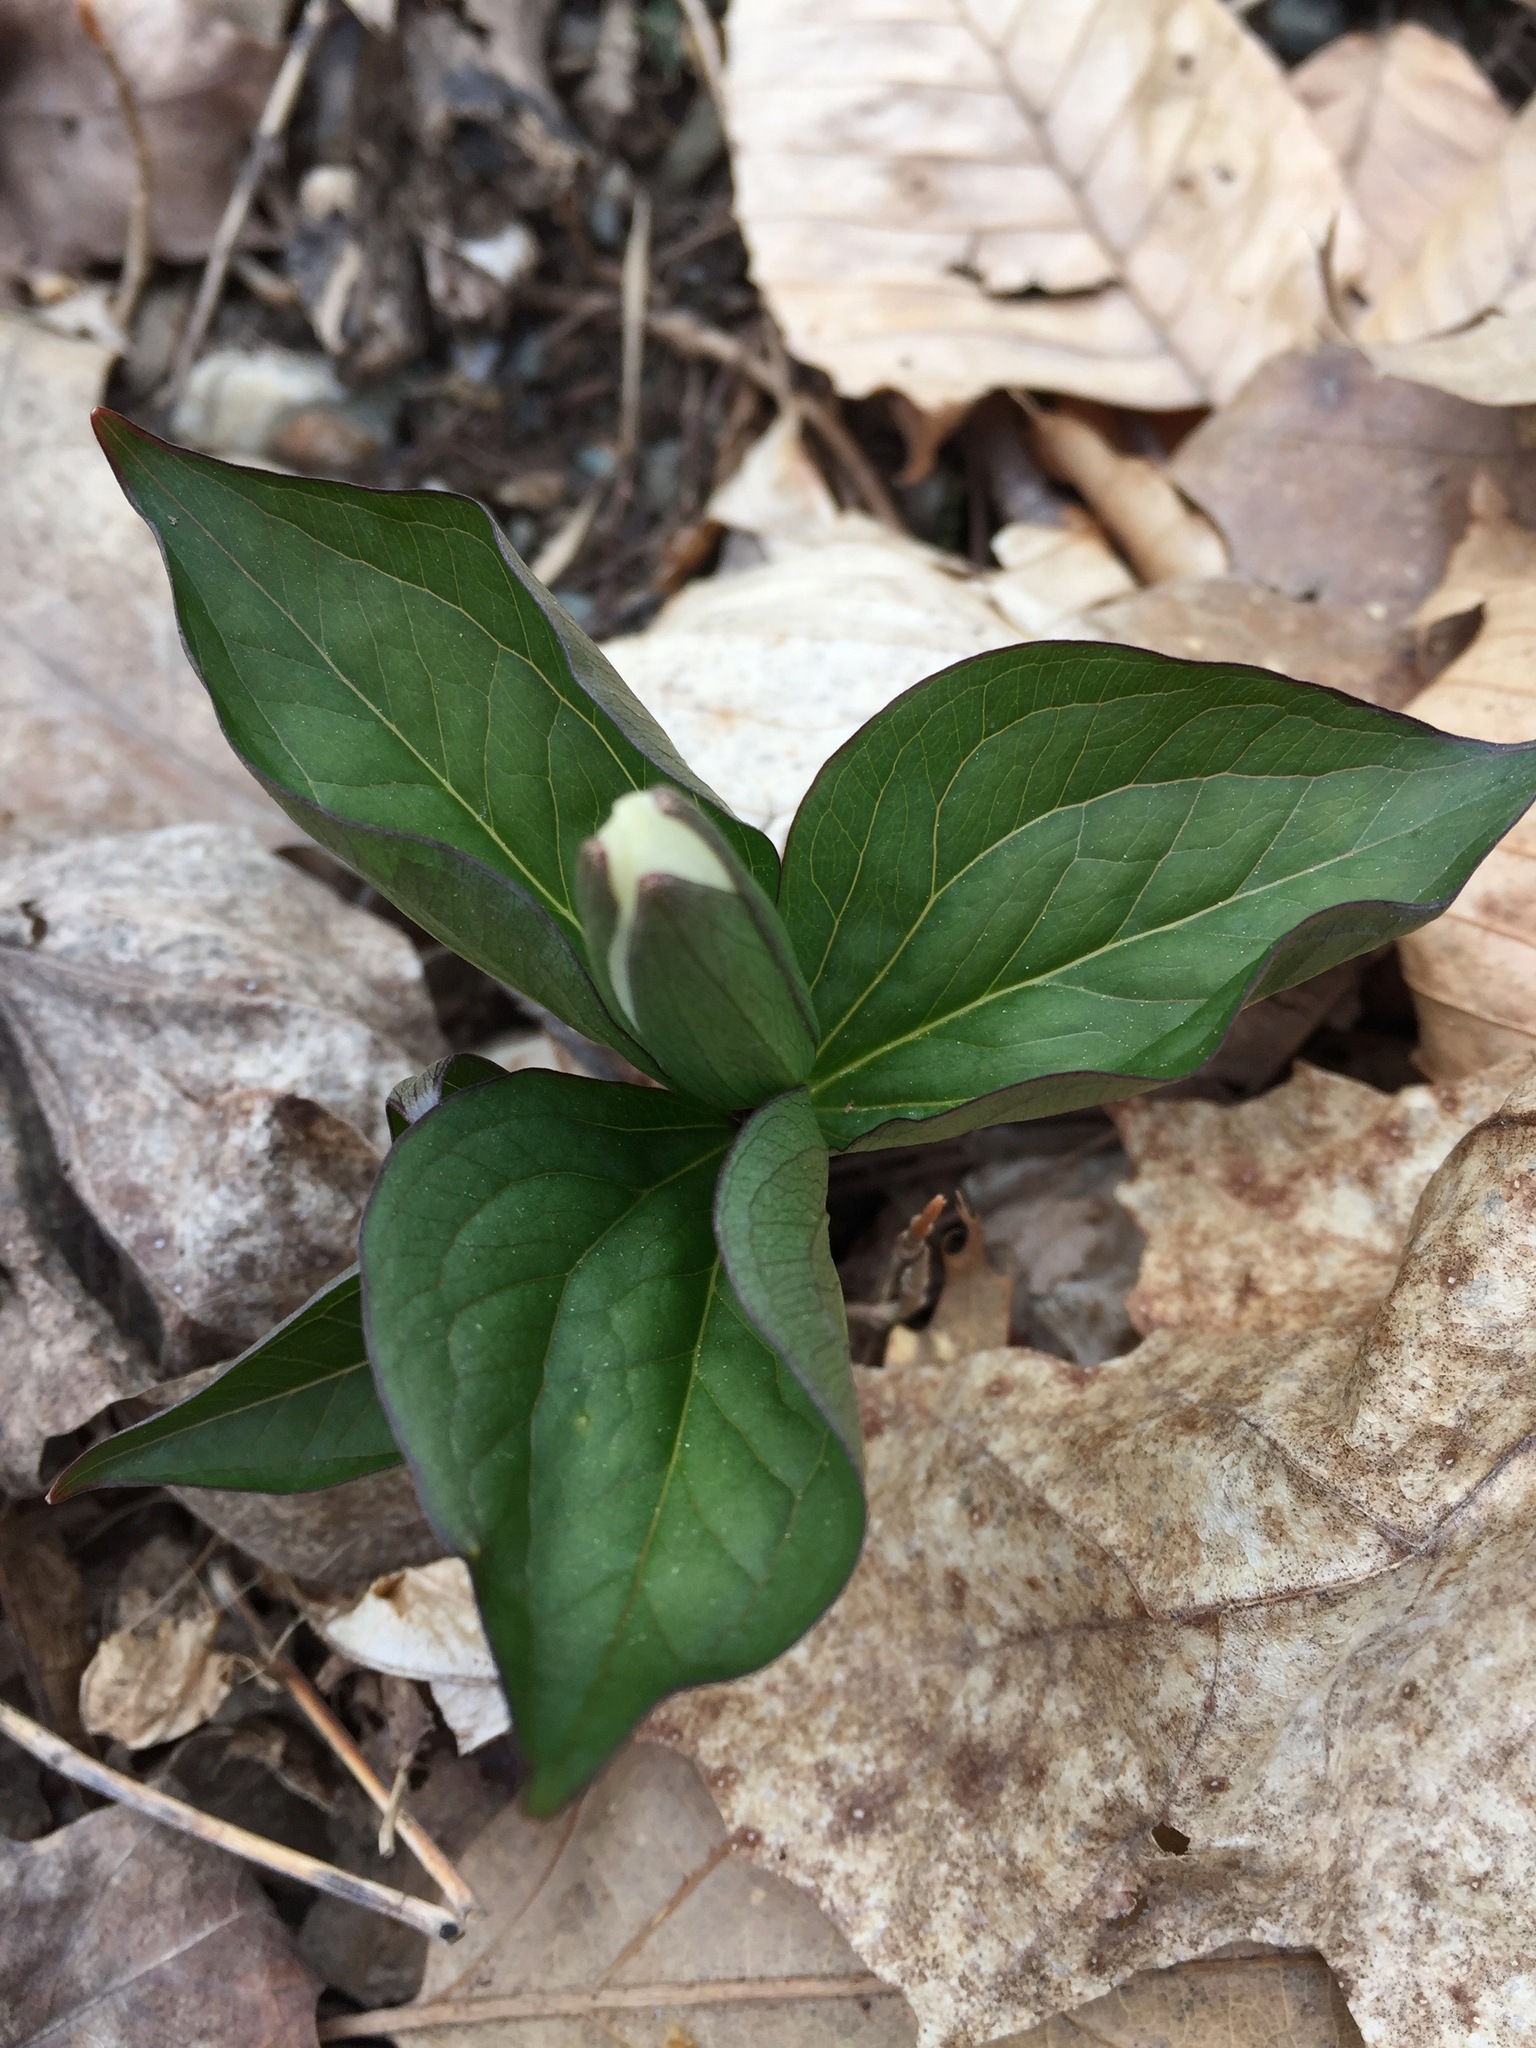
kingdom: Plantae
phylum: Tracheophyta
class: Liliopsida
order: Liliales
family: Melanthiaceae
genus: Trillium
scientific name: Trillium grandiflorum
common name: Great white trillium
